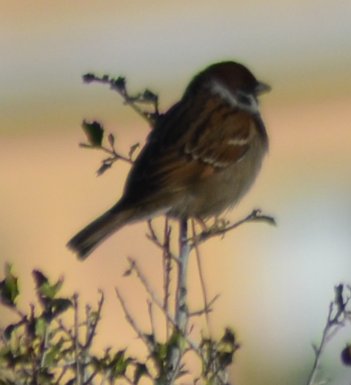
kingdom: Animalia
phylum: Chordata
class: Aves
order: Passeriformes
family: Passeridae
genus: Passer
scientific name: Passer montanus
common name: Eurasian tree sparrow
